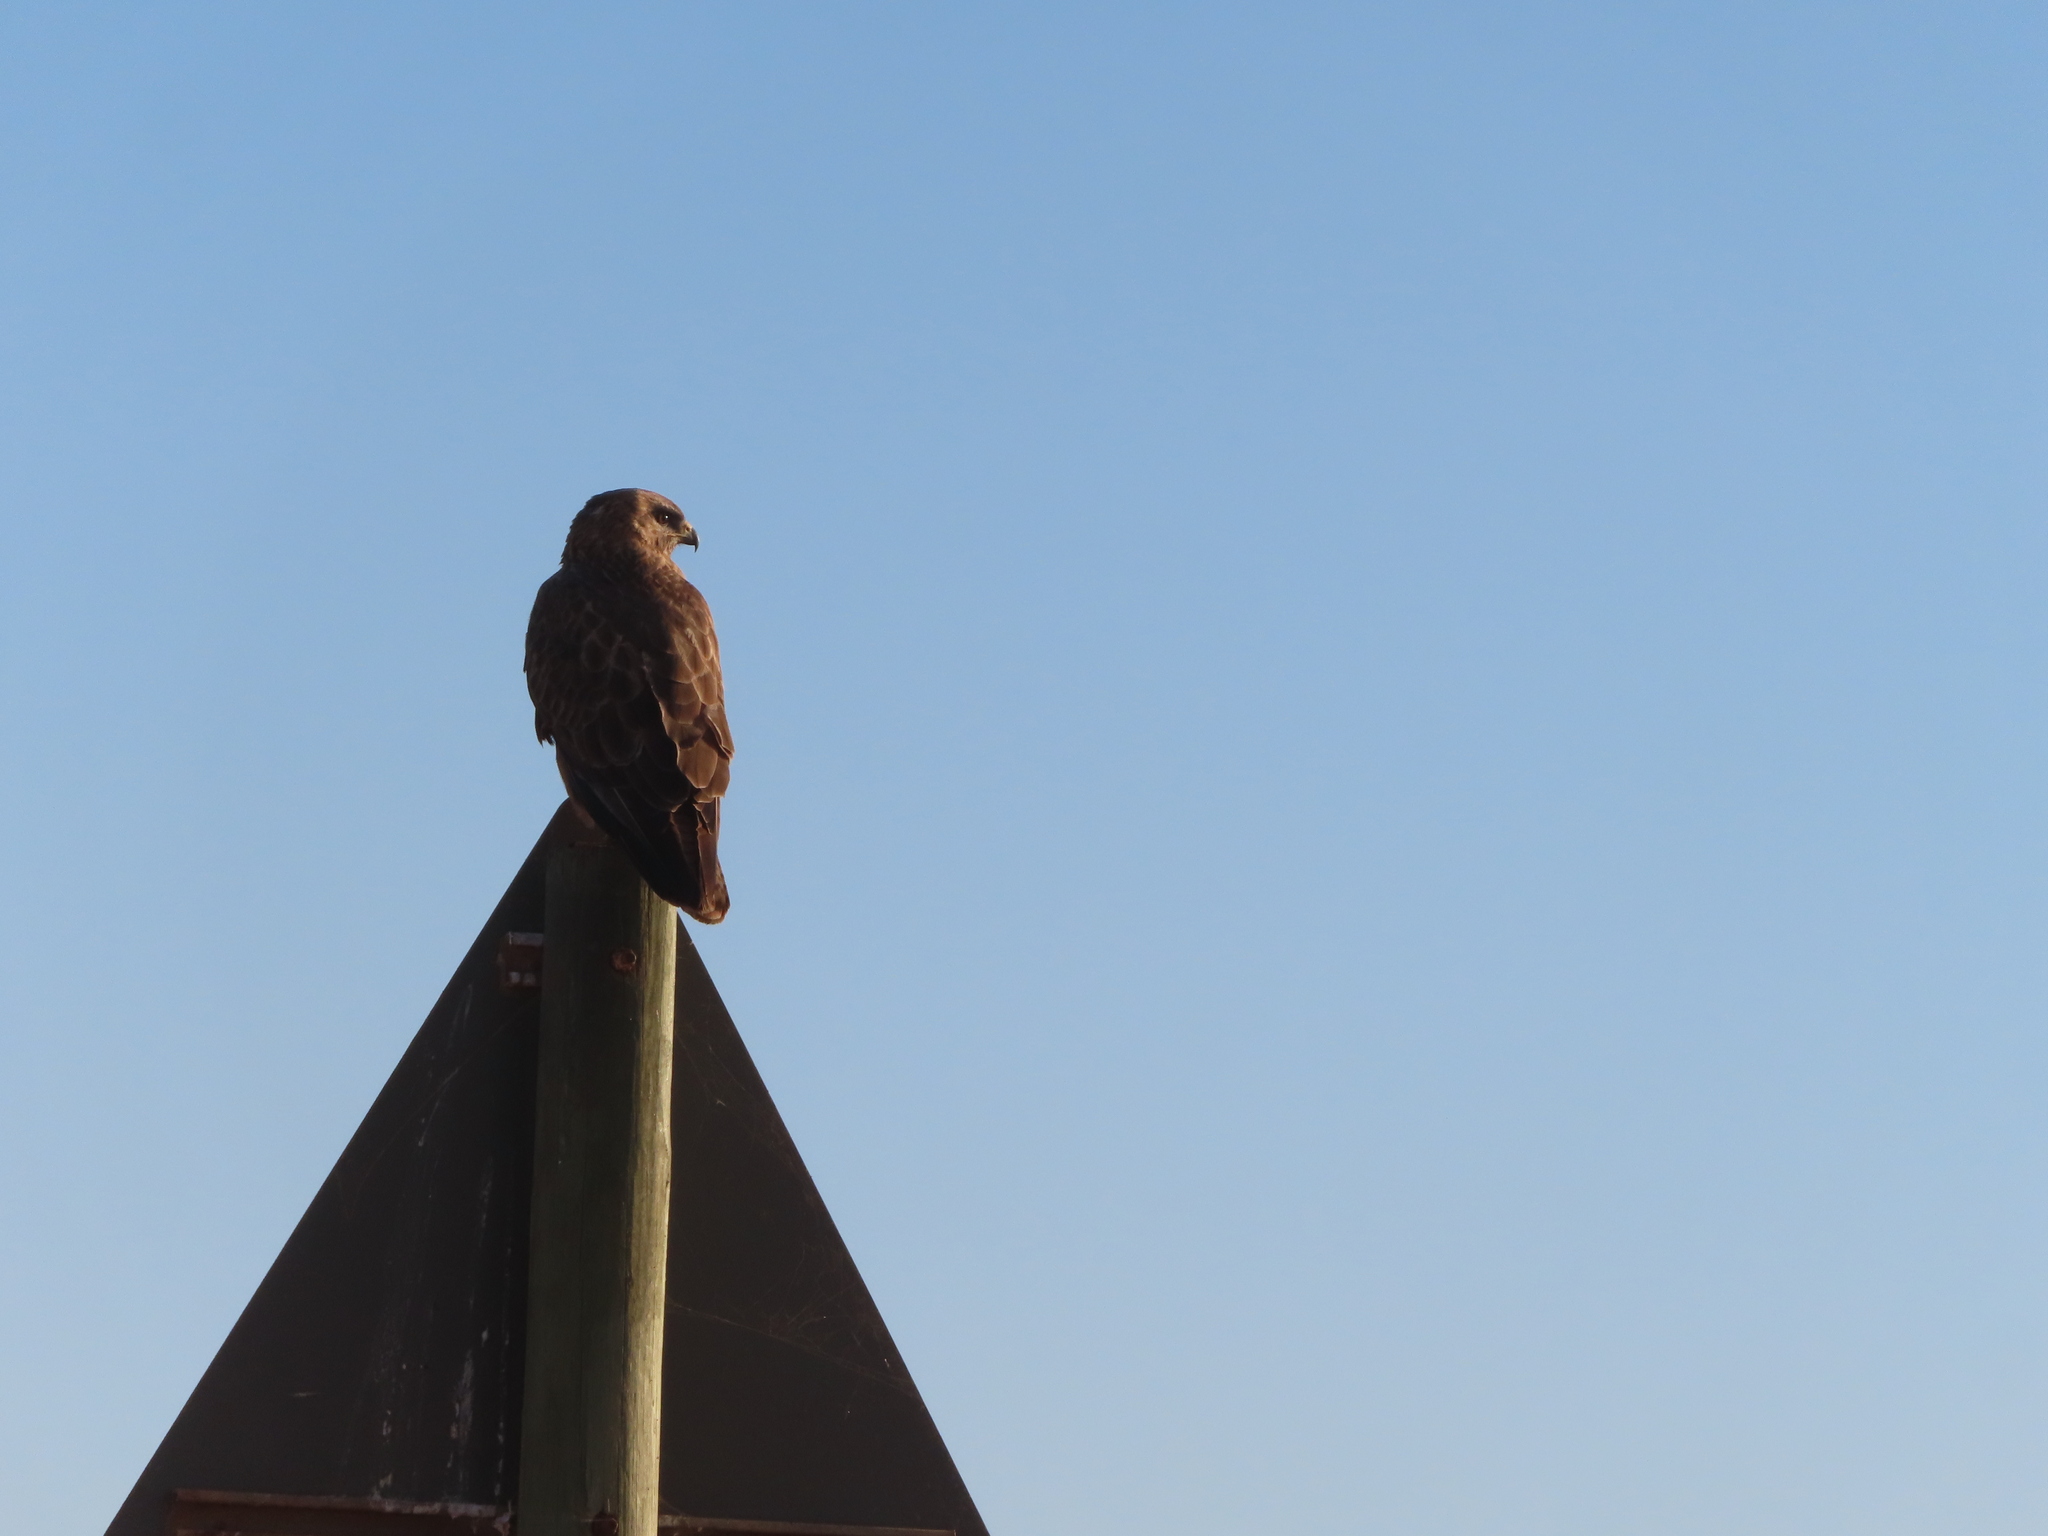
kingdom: Animalia
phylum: Chordata
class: Aves
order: Accipitriformes
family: Accipitridae
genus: Buteo
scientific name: Buteo buteo
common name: Common buzzard
